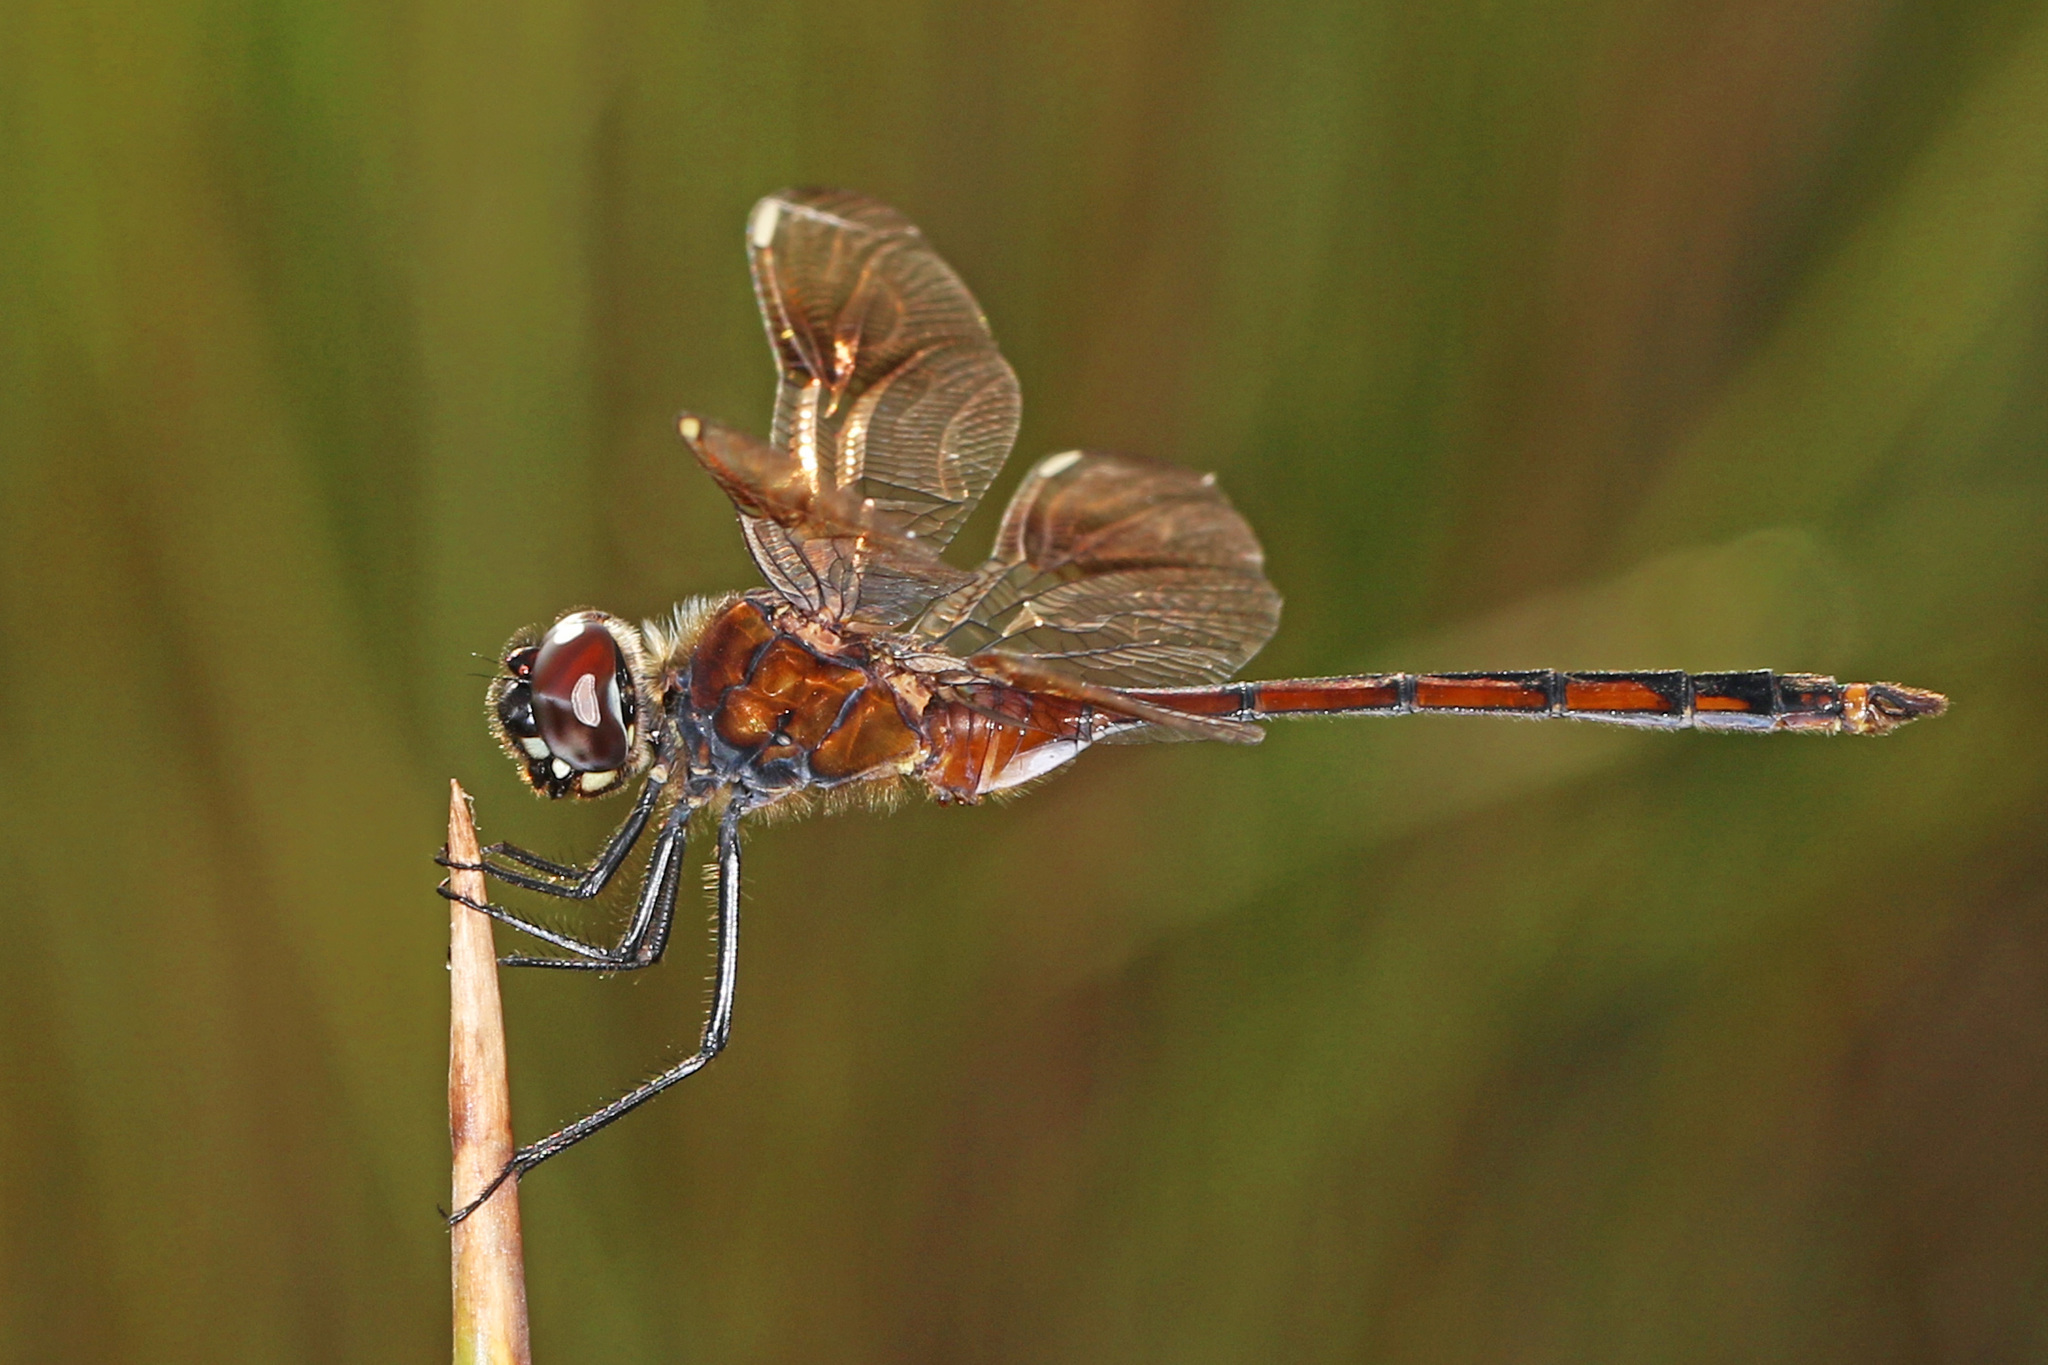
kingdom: Animalia
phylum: Arthropoda
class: Insecta
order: Odonata
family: Libellulidae
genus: Brachymesia
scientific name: Brachymesia gravida
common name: Four-spotted pennant
